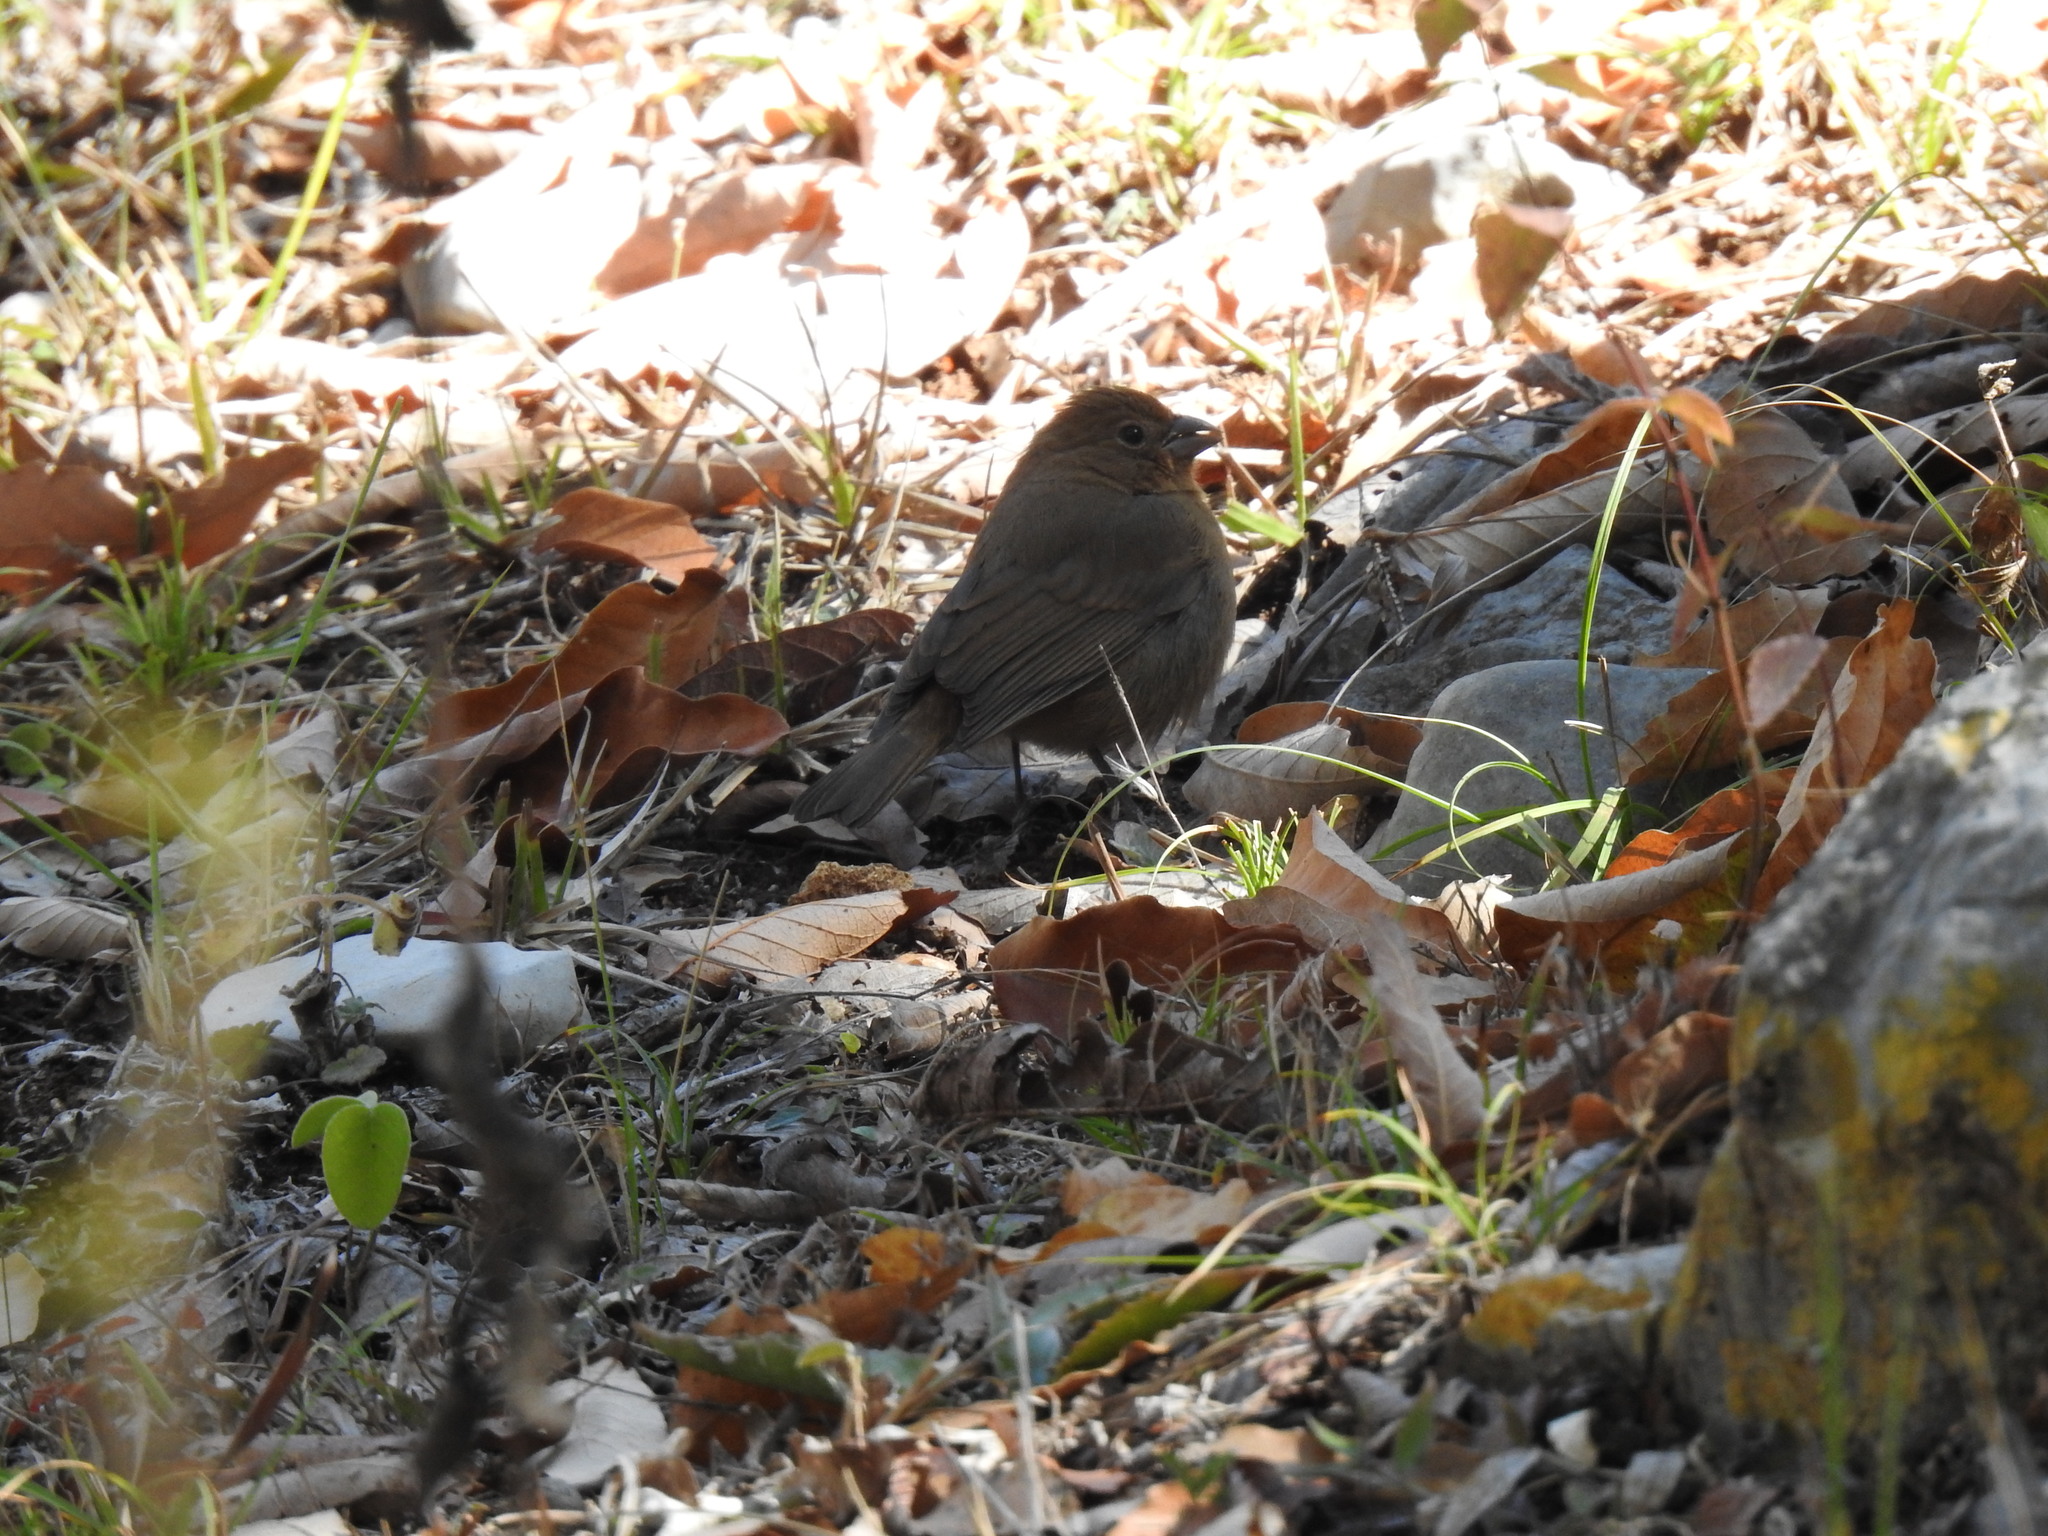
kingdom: Animalia
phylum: Chordata
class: Aves
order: Passeriformes
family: Passerellidae
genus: Melozone
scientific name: Melozone fusca
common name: Canyon towhee
